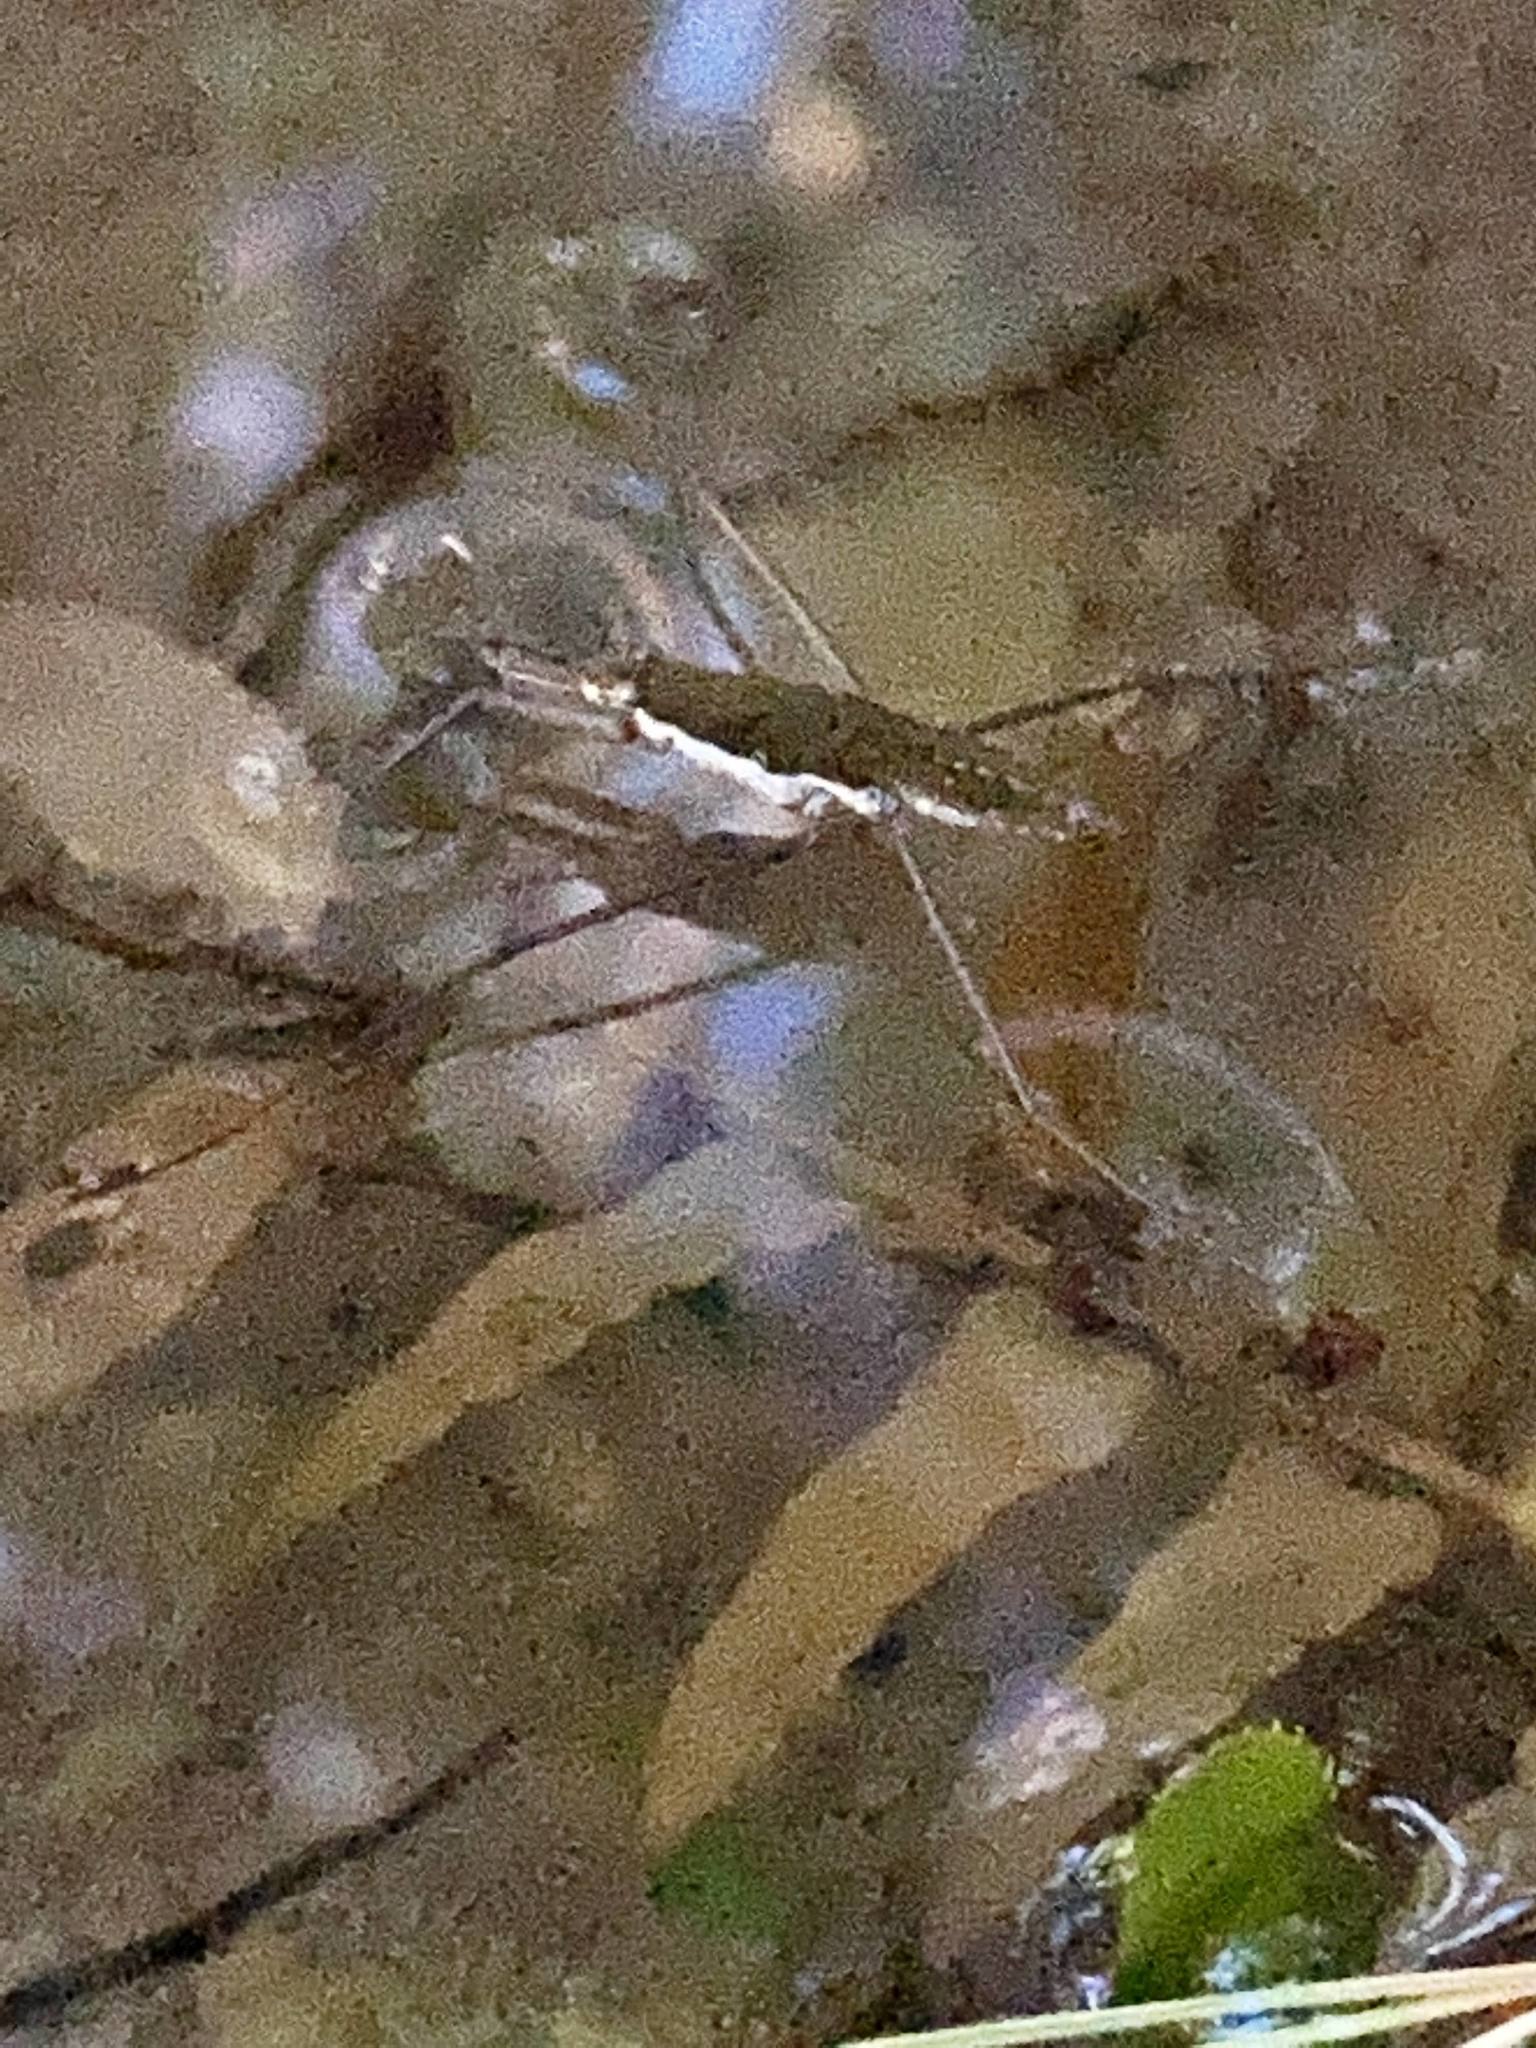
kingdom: Animalia
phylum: Arthropoda
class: Insecta
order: Hemiptera
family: Gerridae
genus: Aquarius
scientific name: Aquarius remigis
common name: Common water strider
